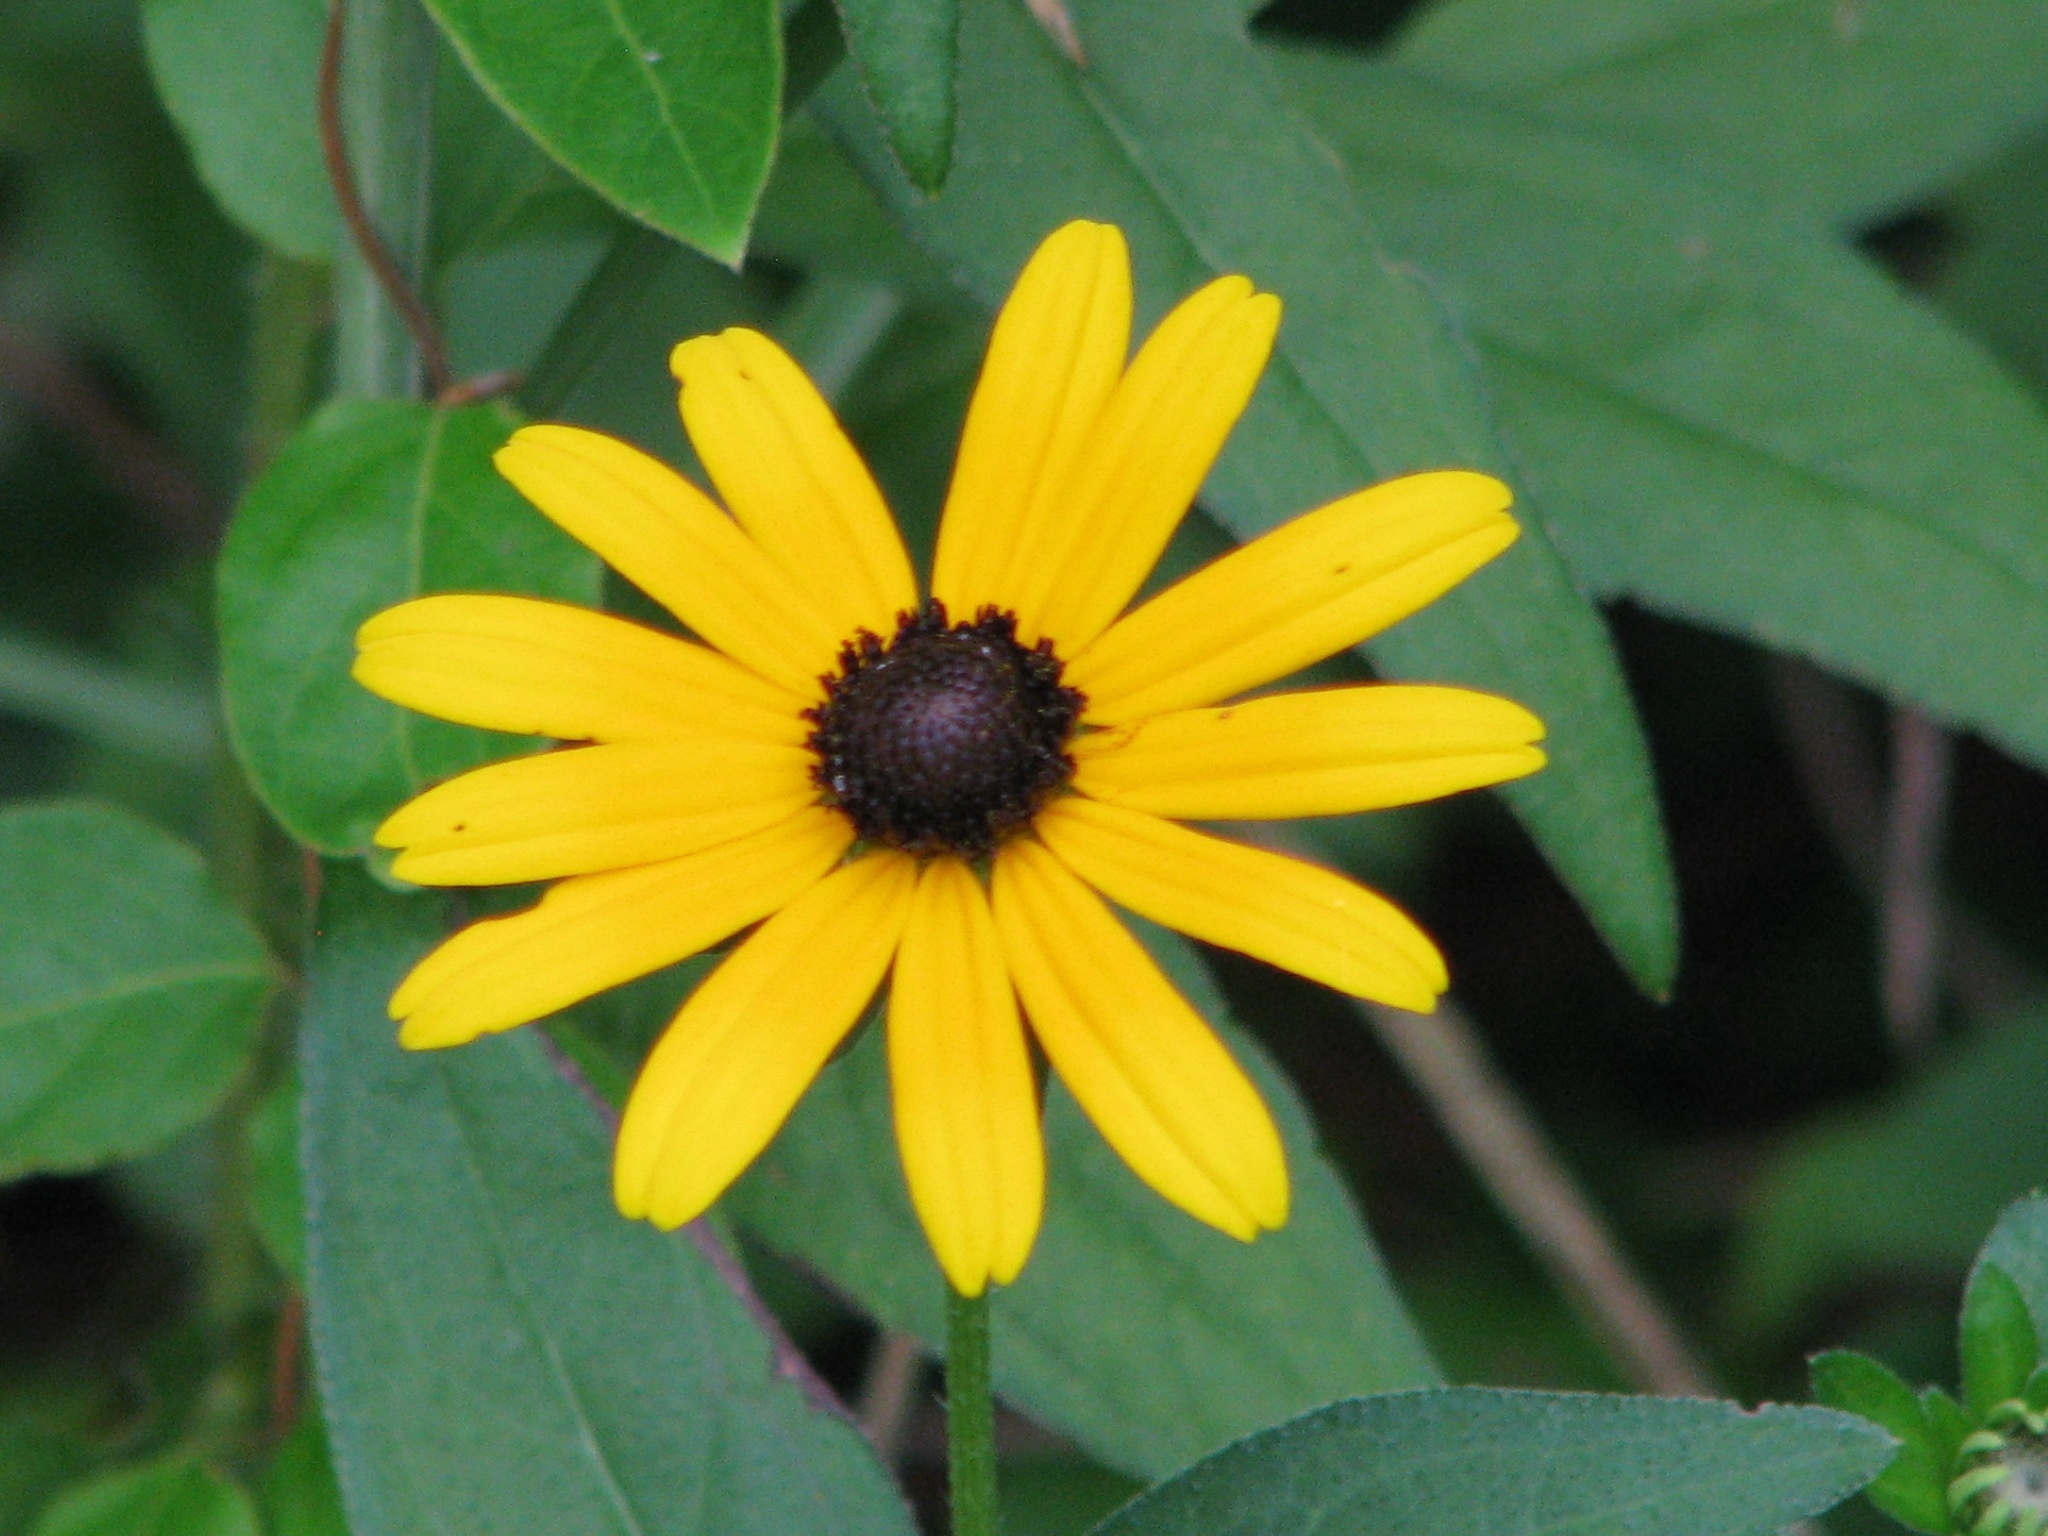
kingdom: Plantae
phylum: Tracheophyta
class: Magnoliopsida
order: Asterales
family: Asteraceae
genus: Rudbeckia
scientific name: Rudbeckia hirta
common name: Black-eyed-susan
